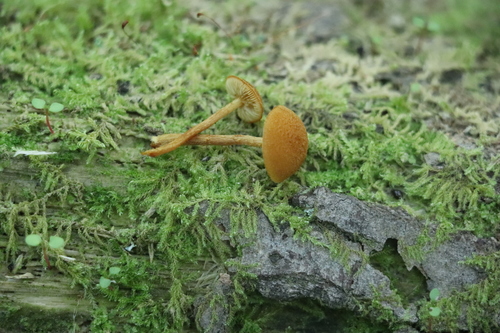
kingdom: Fungi
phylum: Basidiomycota
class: Agaricomycetes
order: Agaricales
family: Tubariaceae
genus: Flammulaster
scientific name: Flammulaster
